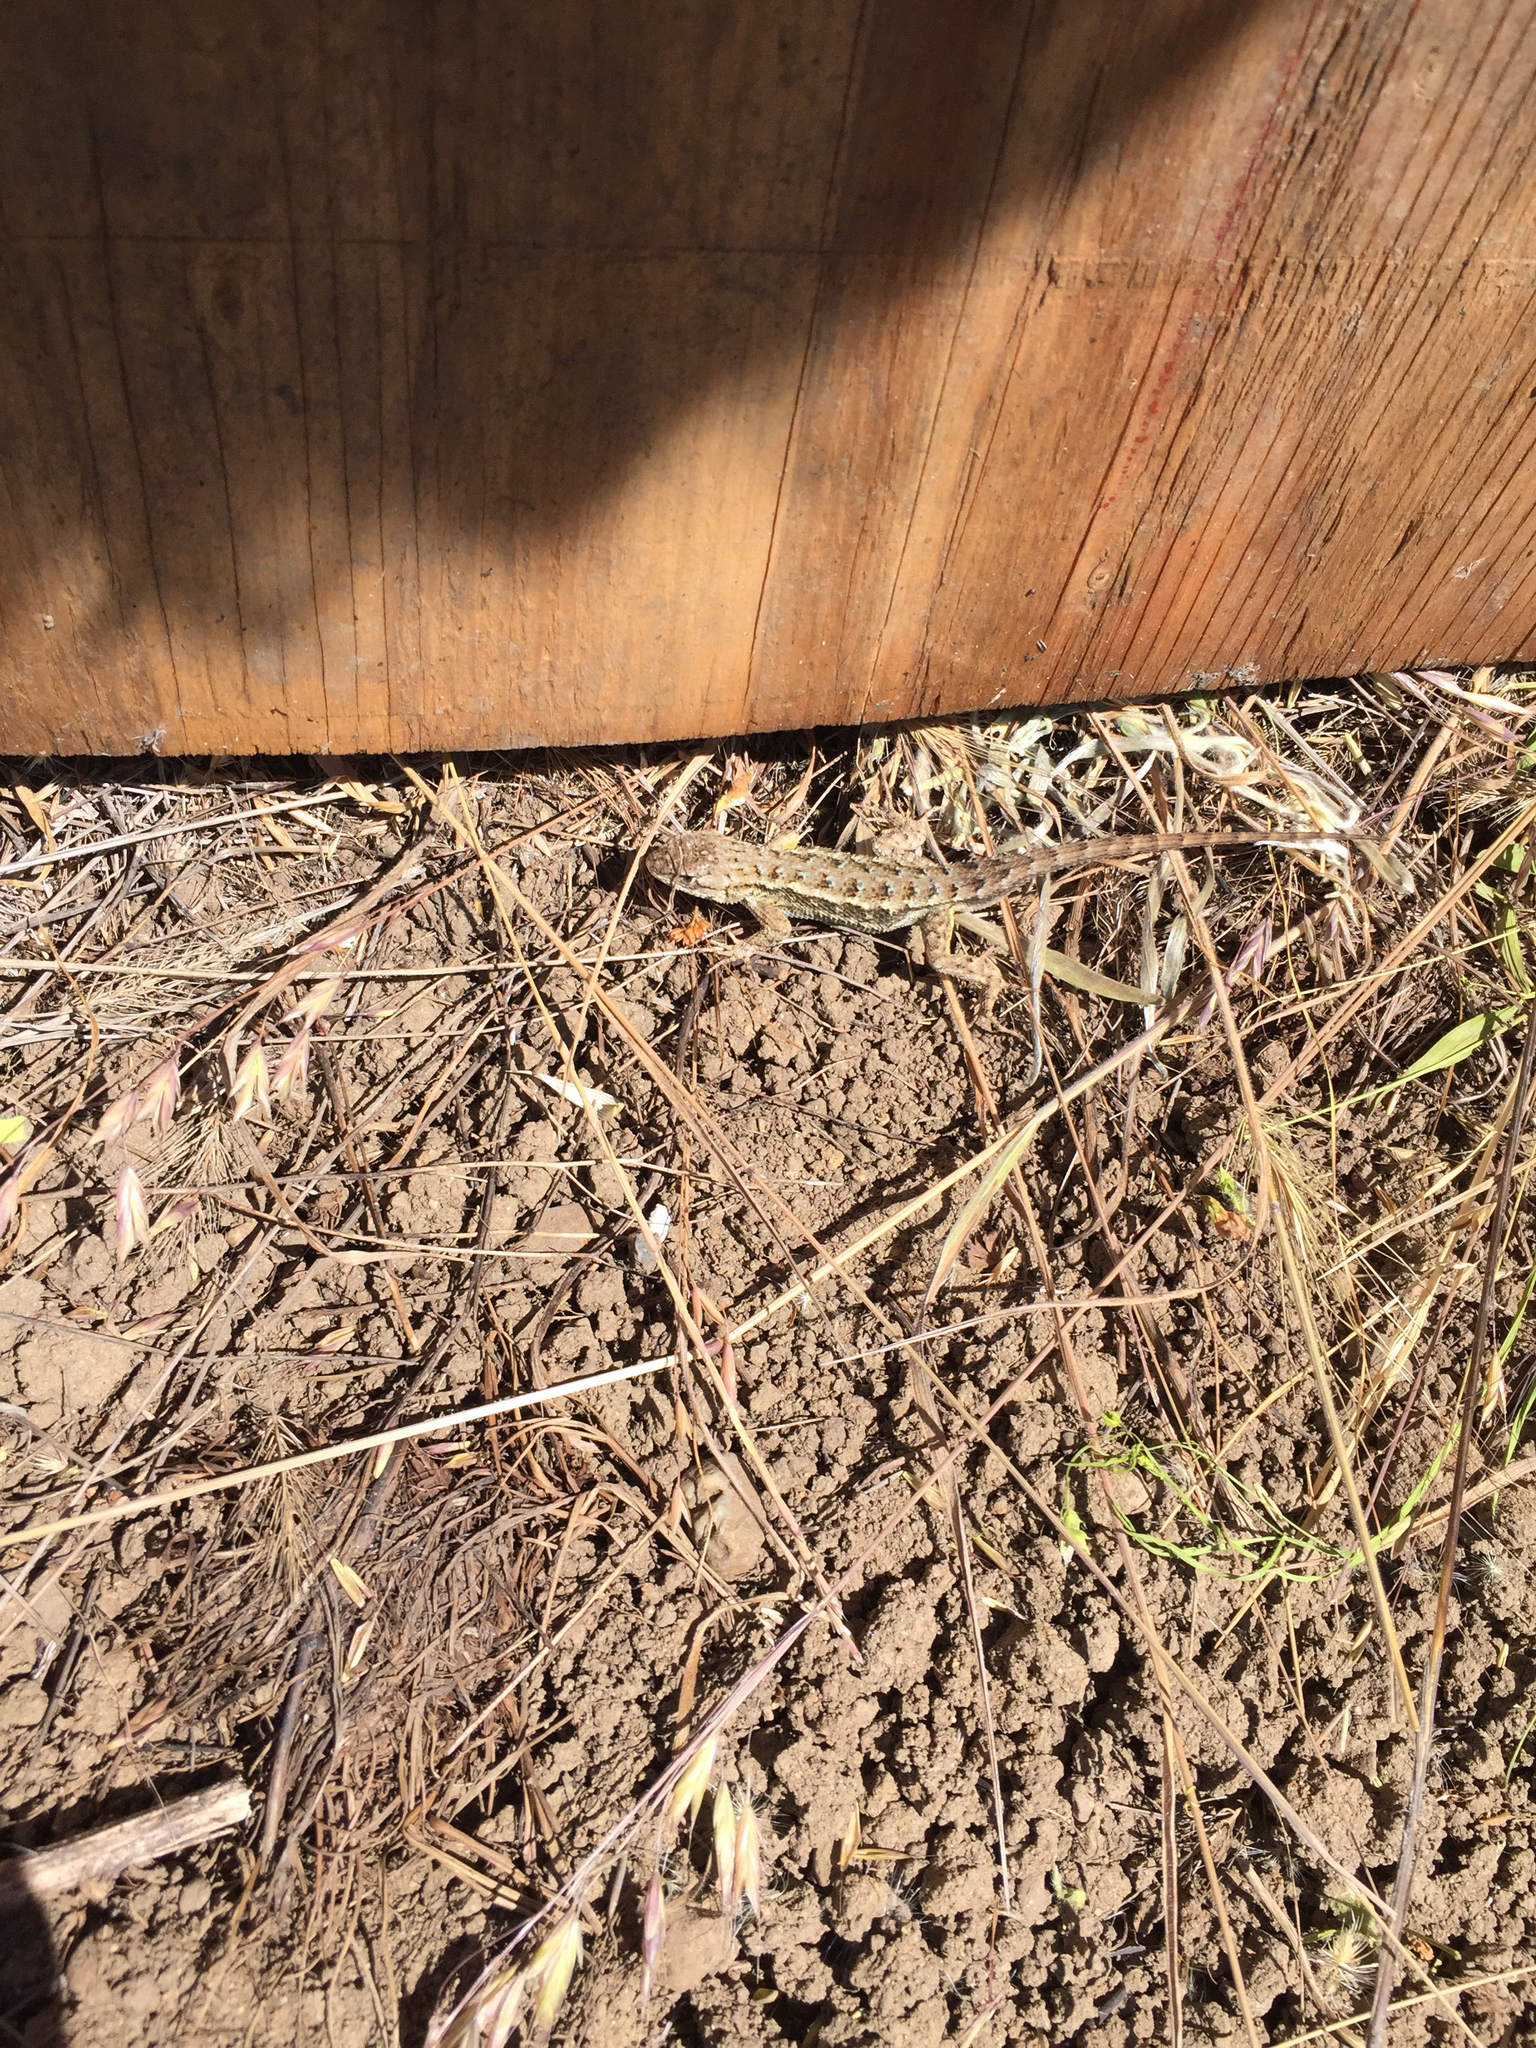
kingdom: Animalia
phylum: Chordata
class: Squamata
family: Phrynosomatidae
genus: Sceloporus
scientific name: Sceloporus occidentalis
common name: Western fence lizard
